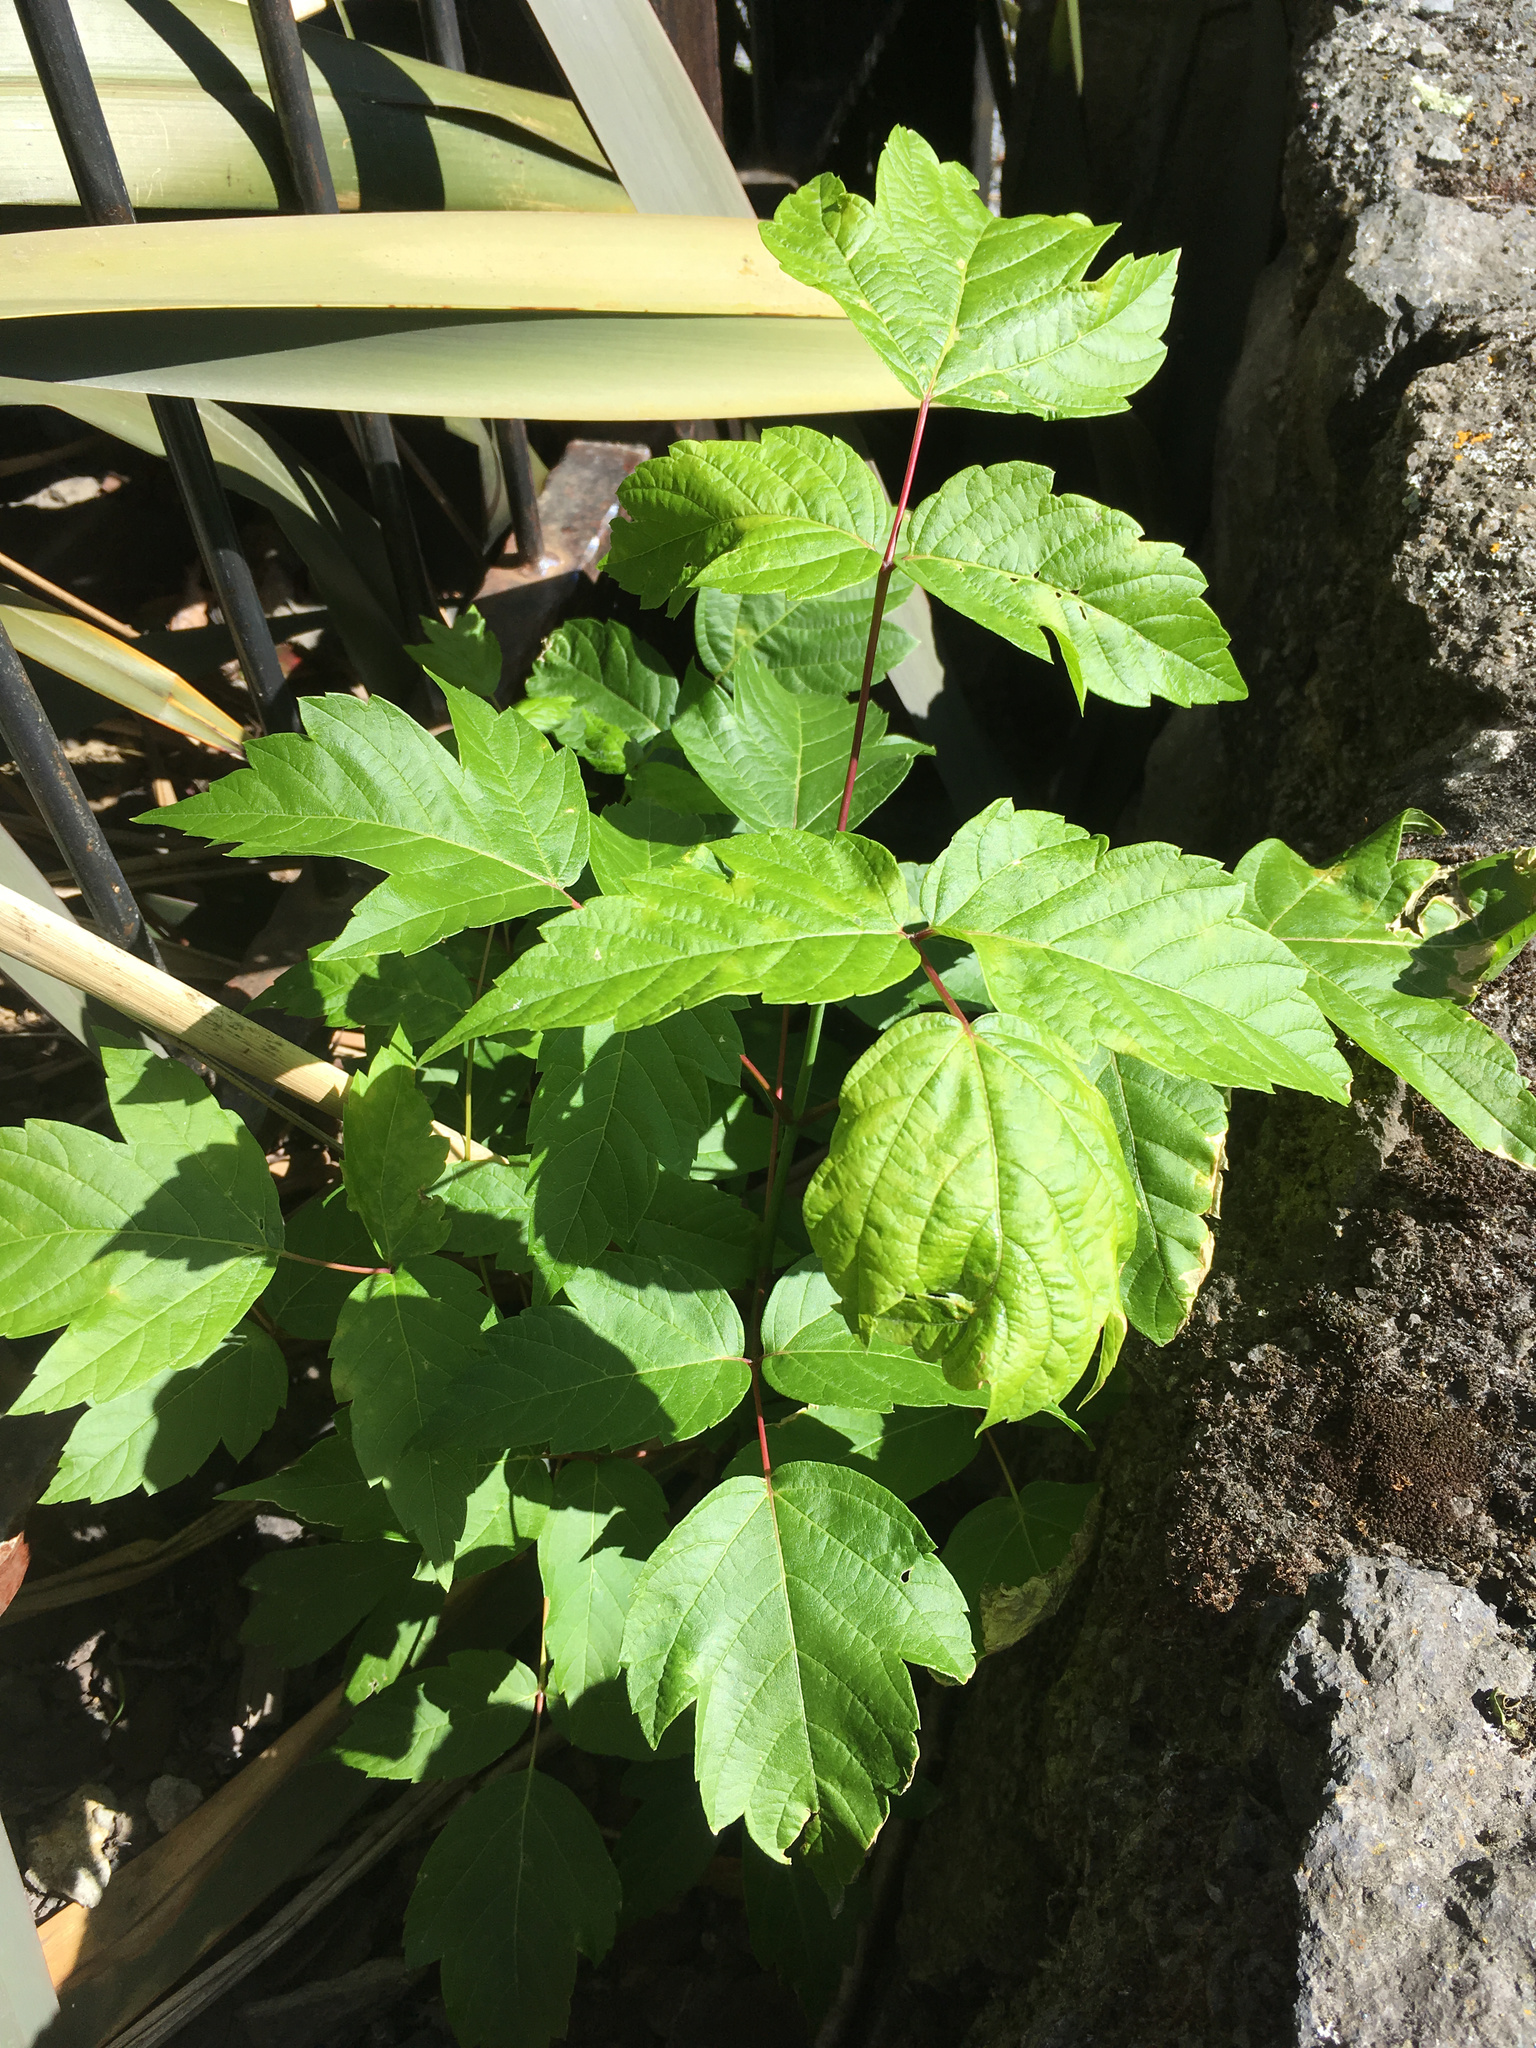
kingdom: Plantae
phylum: Tracheophyta
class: Magnoliopsida
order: Sapindales
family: Sapindaceae
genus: Acer
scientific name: Acer negundo
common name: Ashleaf maple
